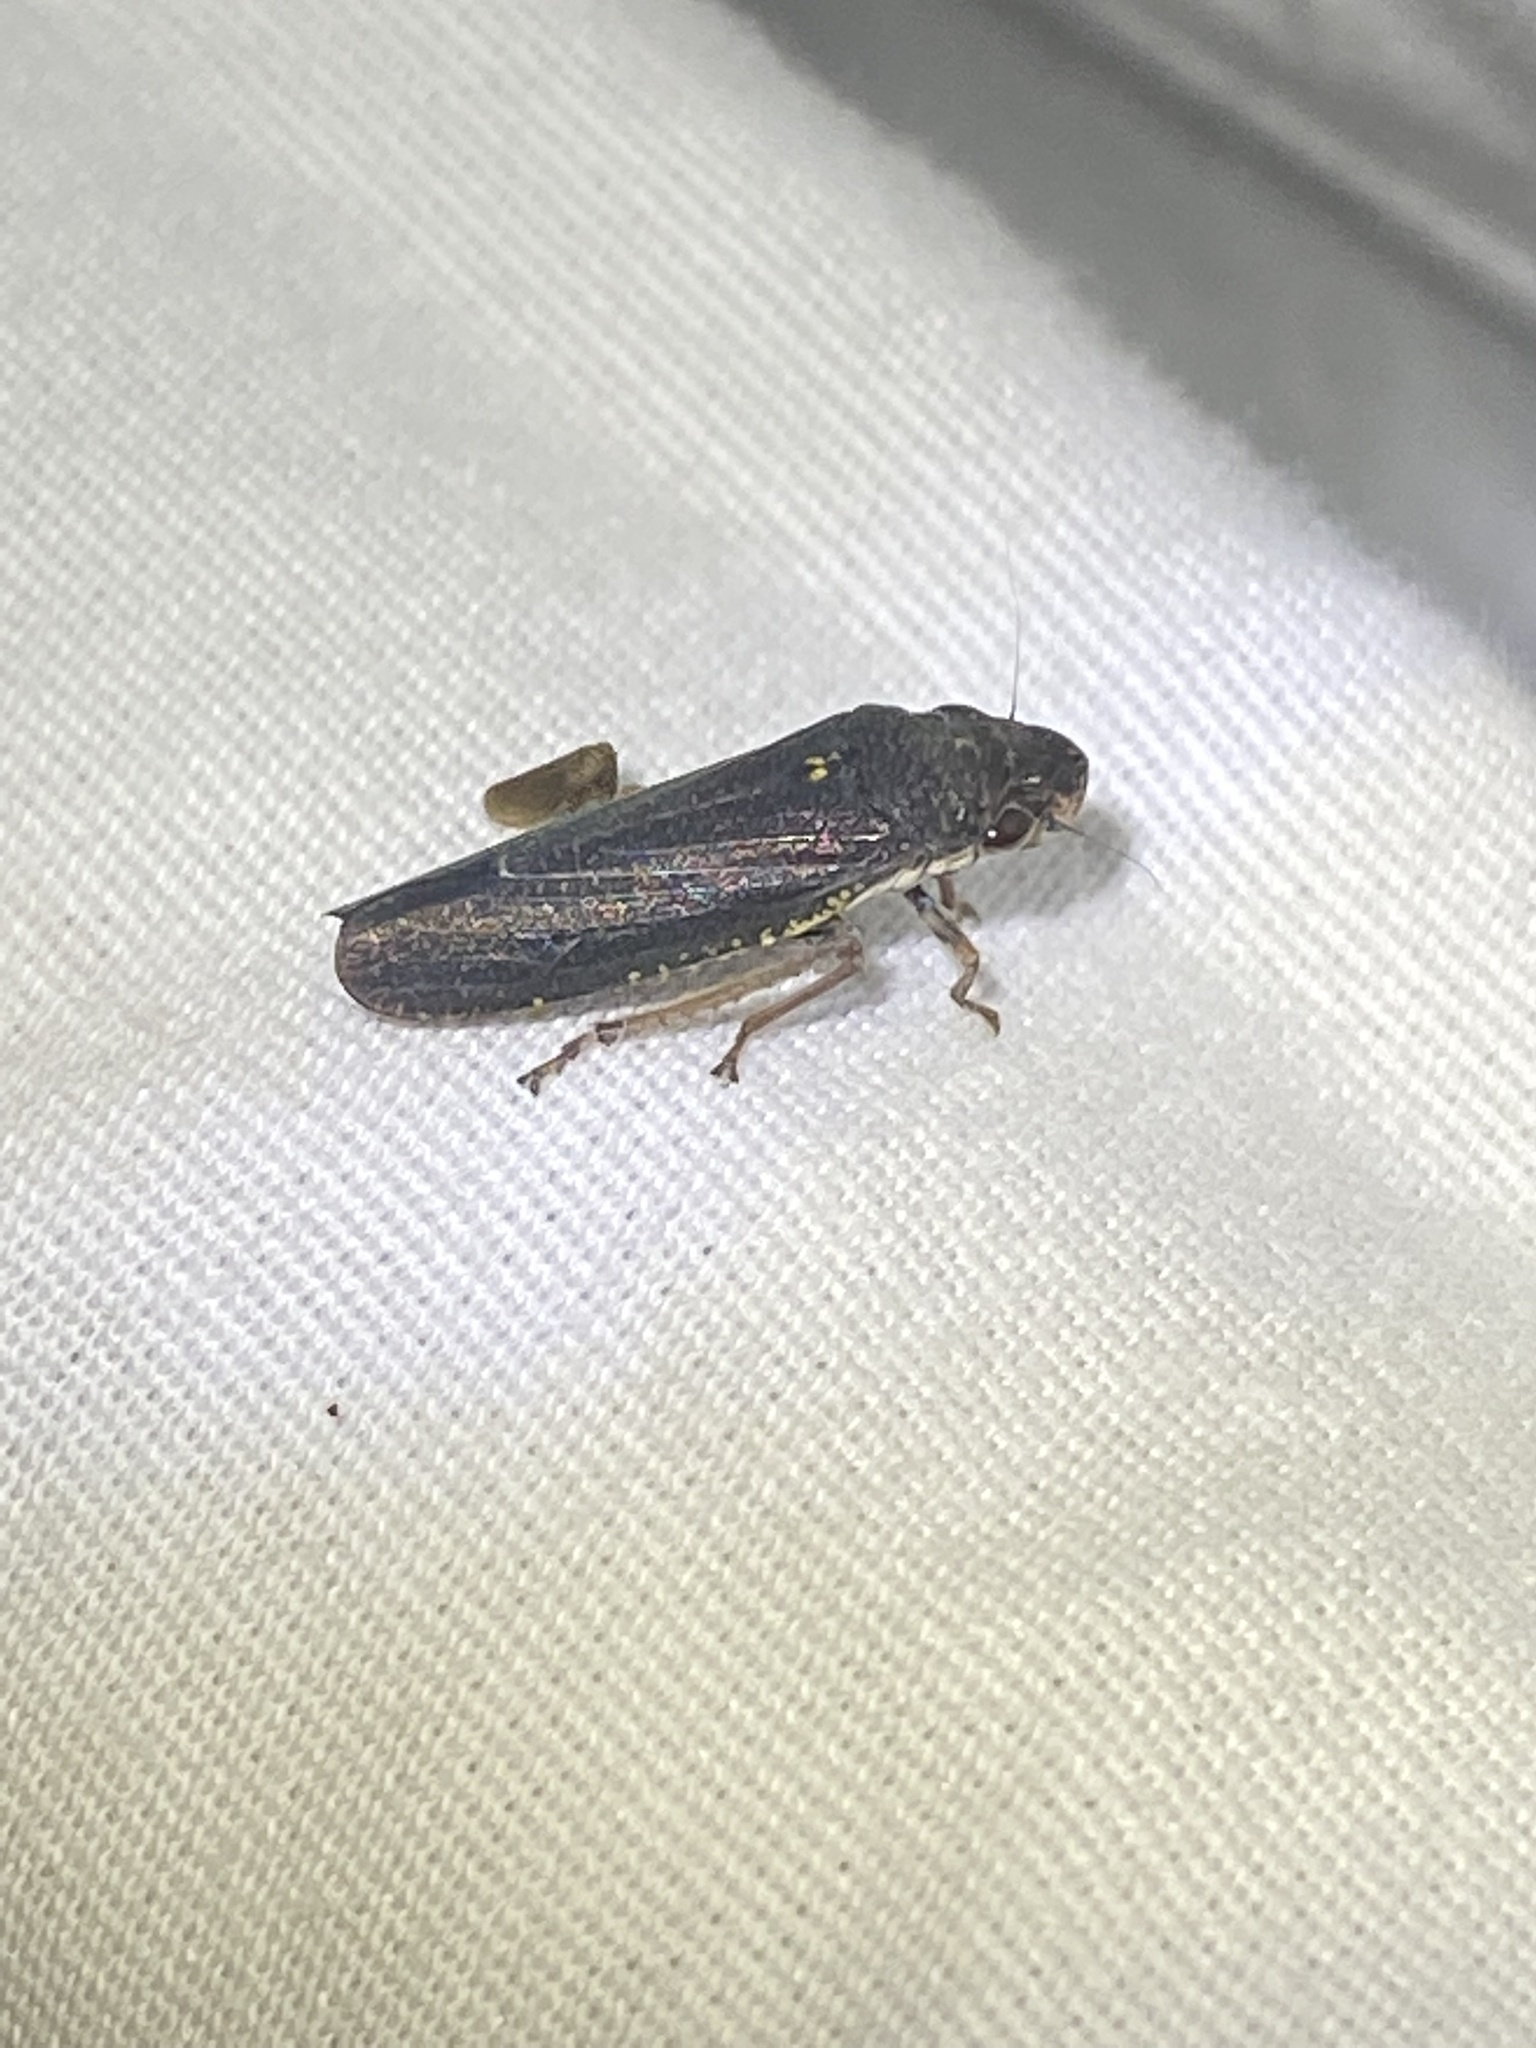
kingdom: Animalia
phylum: Arthropoda
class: Insecta
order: Hemiptera
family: Cicadellidae
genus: Paraulacizes
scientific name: Paraulacizes irrorata
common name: Speckled sharpshooter
